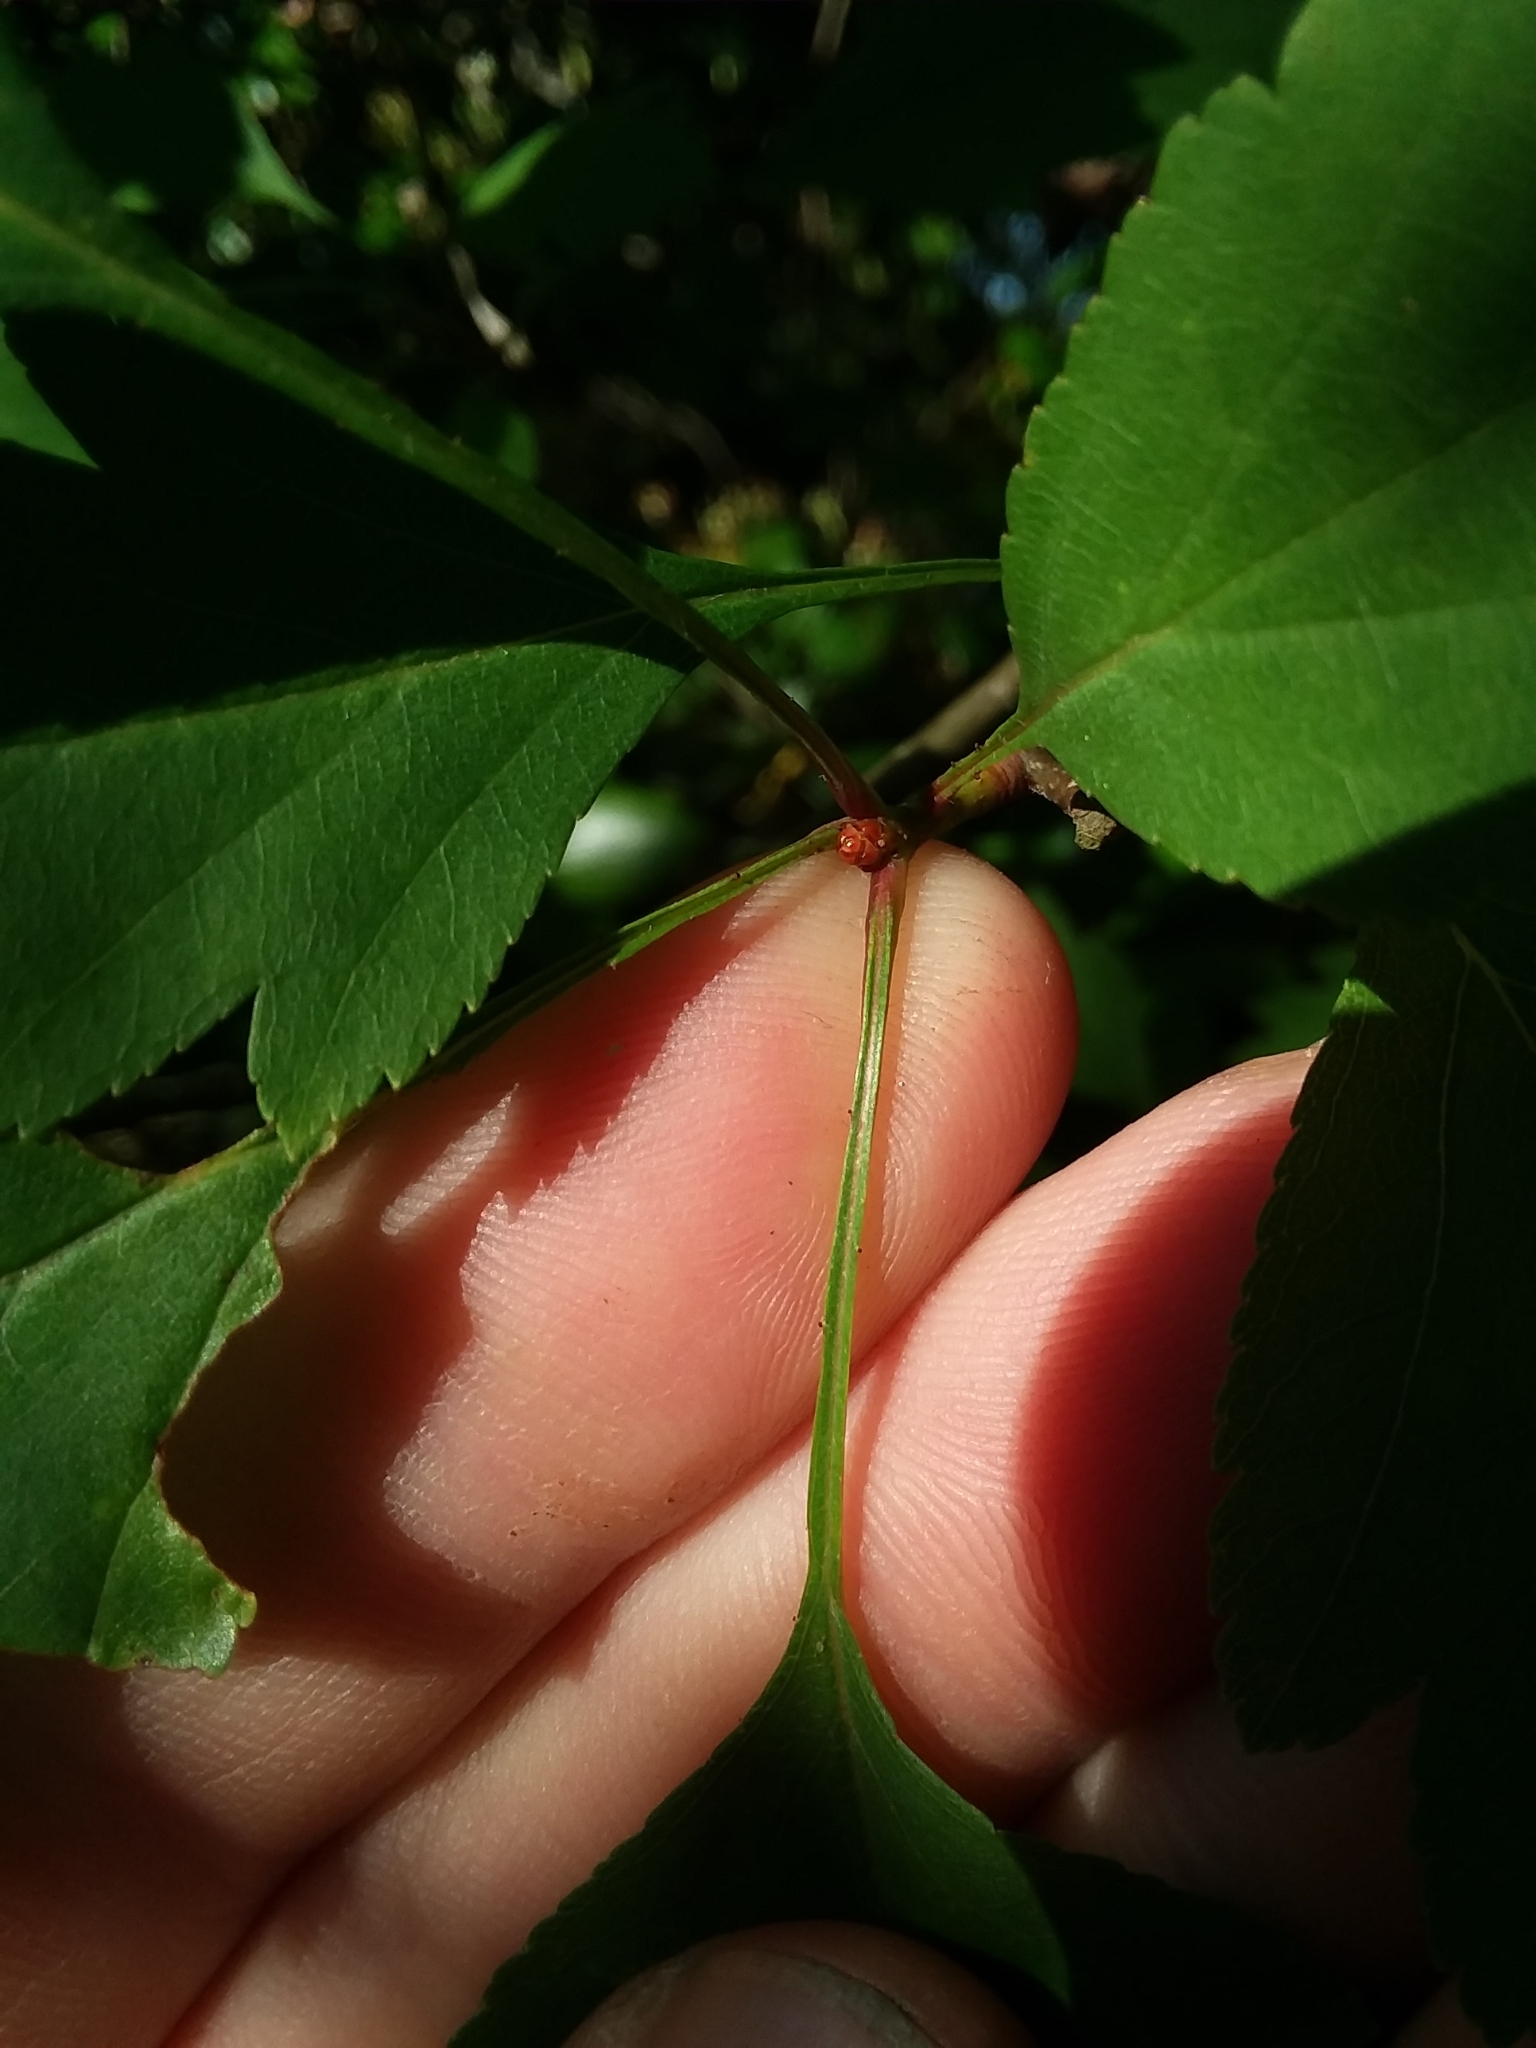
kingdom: Plantae
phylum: Tracheophyta
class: Magnoliopsida
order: Rosales
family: Rosaceae
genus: Crataegus
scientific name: Crataegus pulcherrima
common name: Beautiful hawthorn
